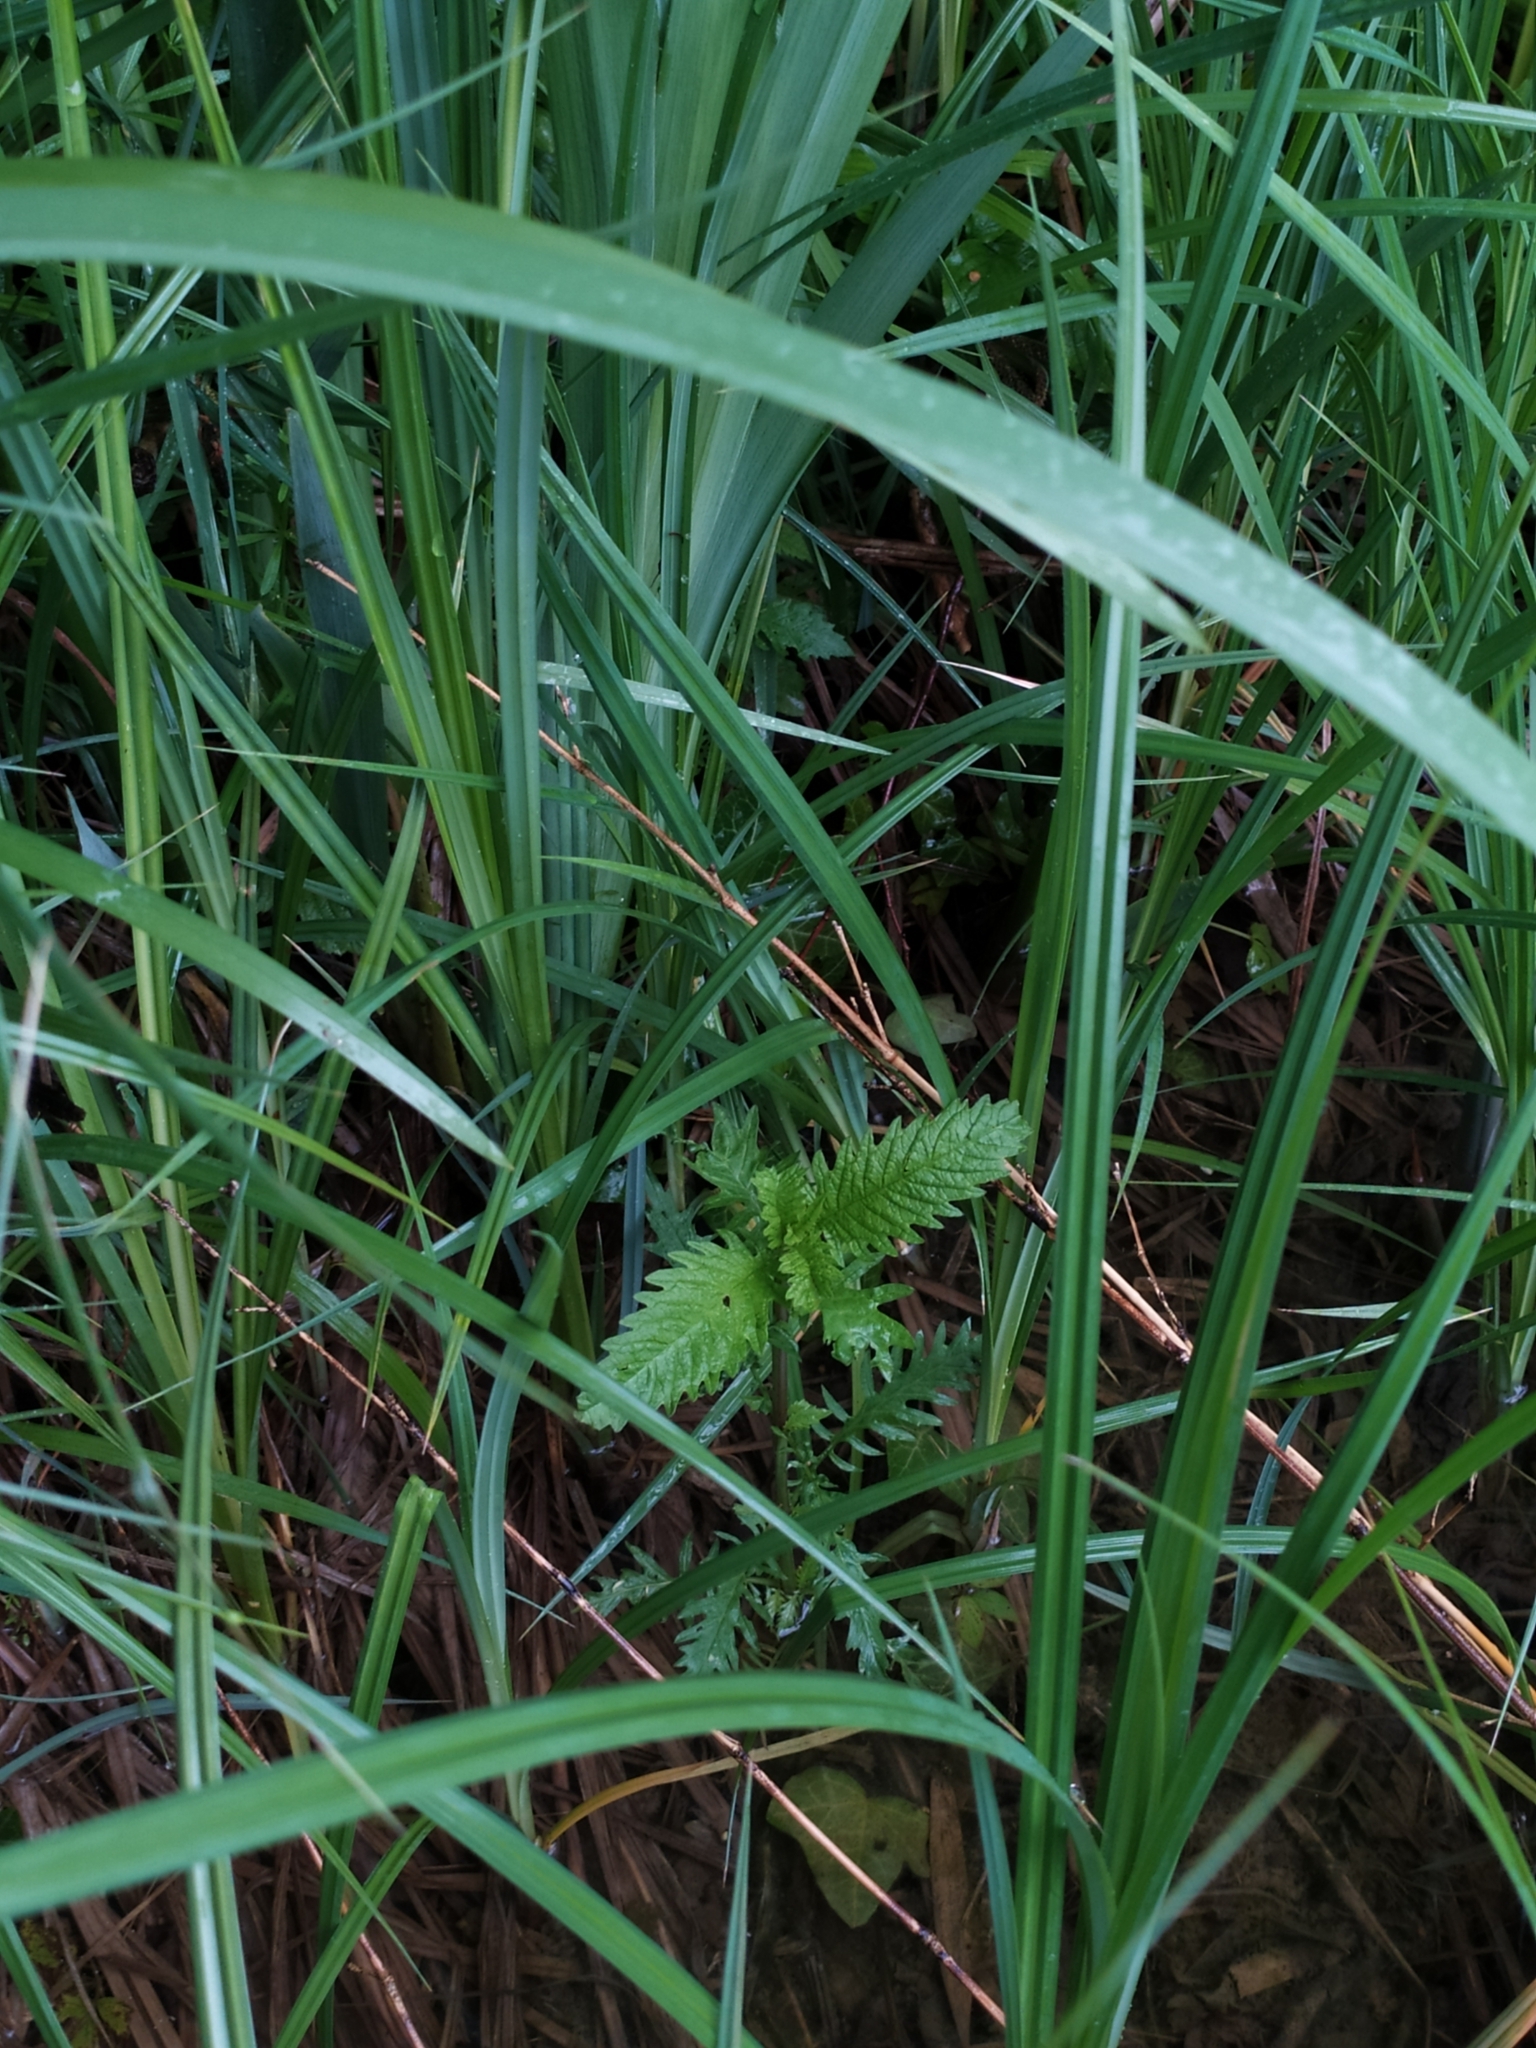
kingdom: Plantae
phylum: Tracheophyta
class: Magnoliopsida
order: Lamiales
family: Lamiaceae
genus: Lycopus
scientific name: Lycopus europaeus
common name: European bugleweed
